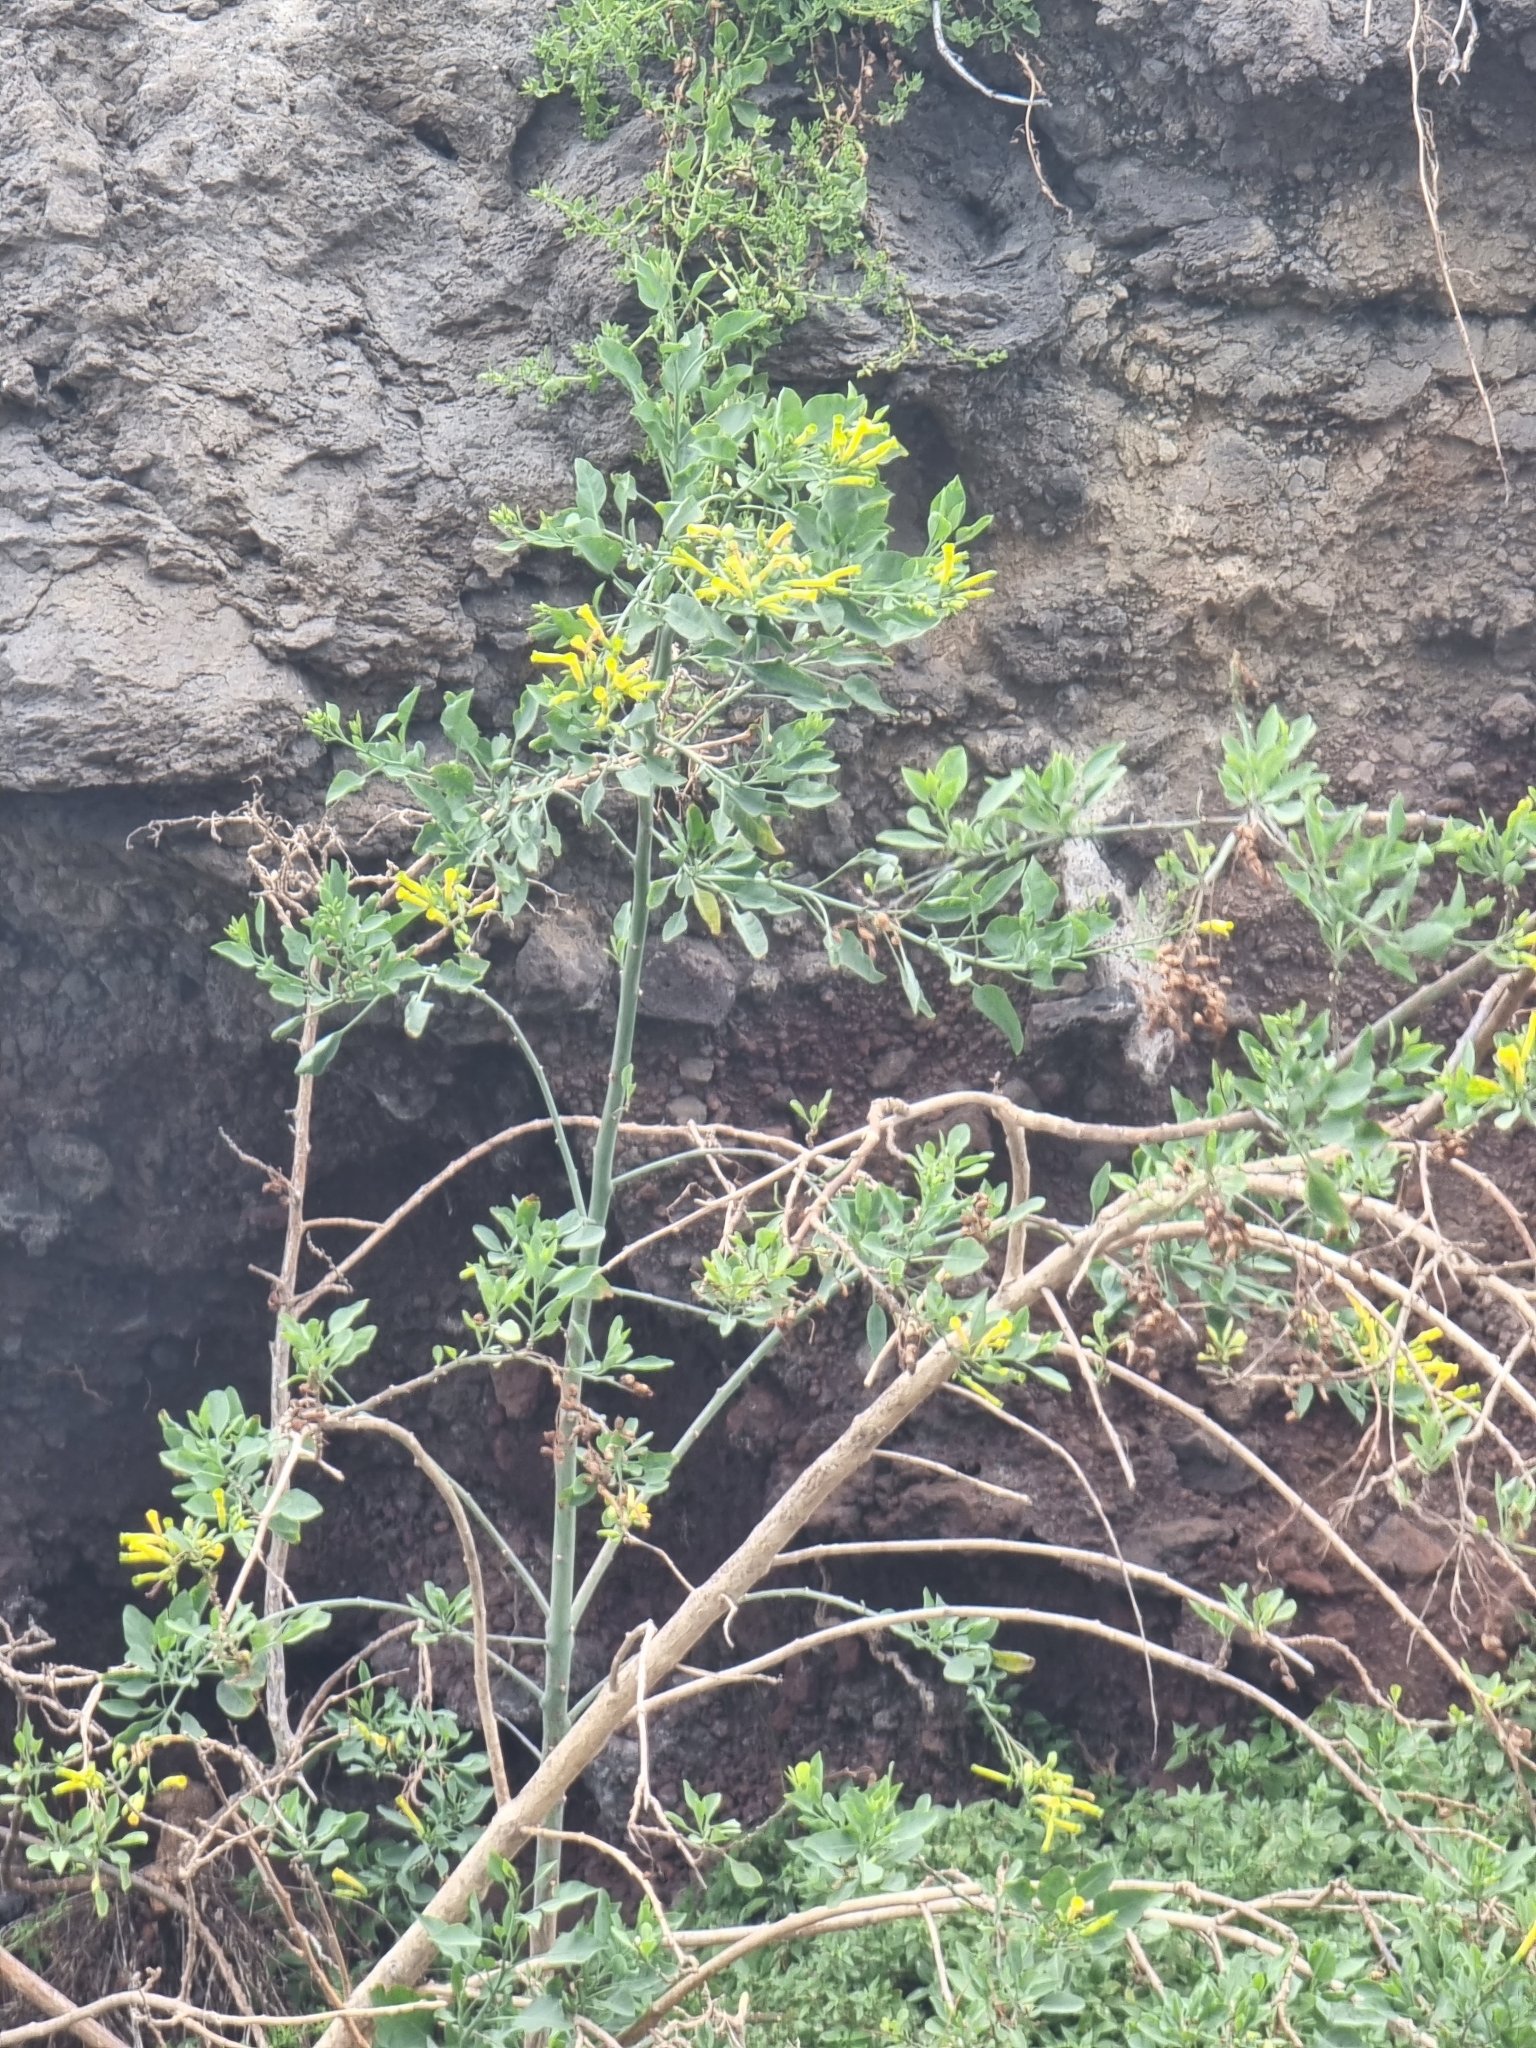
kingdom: Plantae
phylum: Tracheophyta
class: Magnoliopsida
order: Solanales
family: Solanaceae
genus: Nicotiana
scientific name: Nicotiana glauca
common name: Tree tobacco
